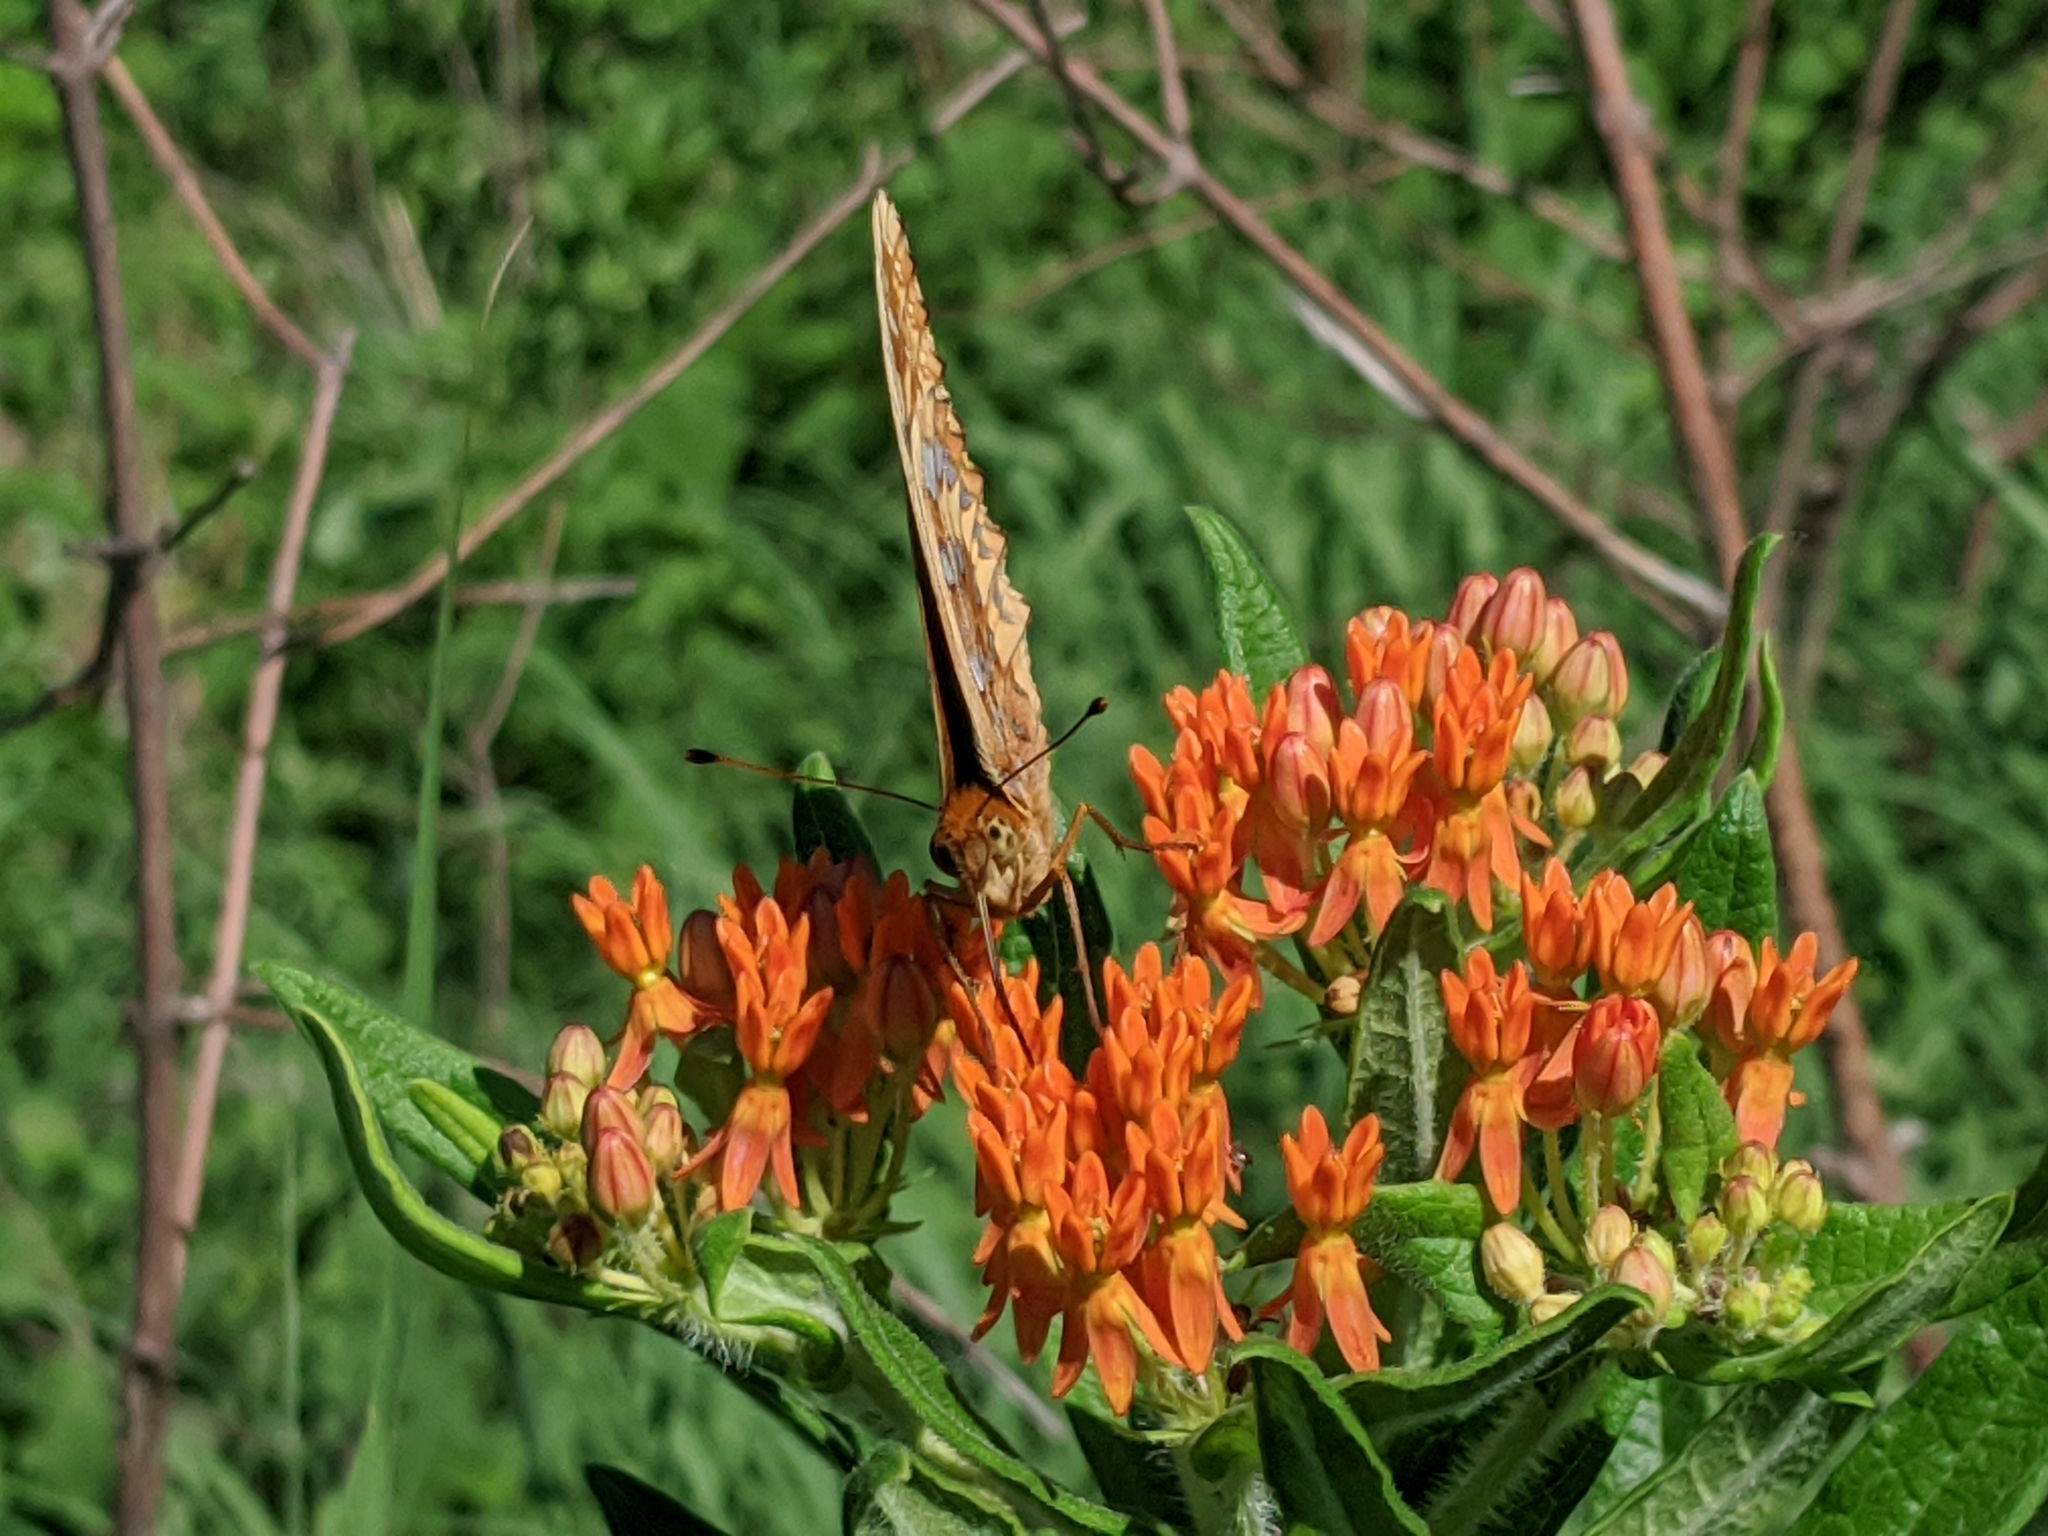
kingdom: Animalia
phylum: Arthropoda
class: Insecta
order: Lepidoptera
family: Nymphalidae
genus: Speyeria
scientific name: Speyeria cybele
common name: Great spangled fritillary
